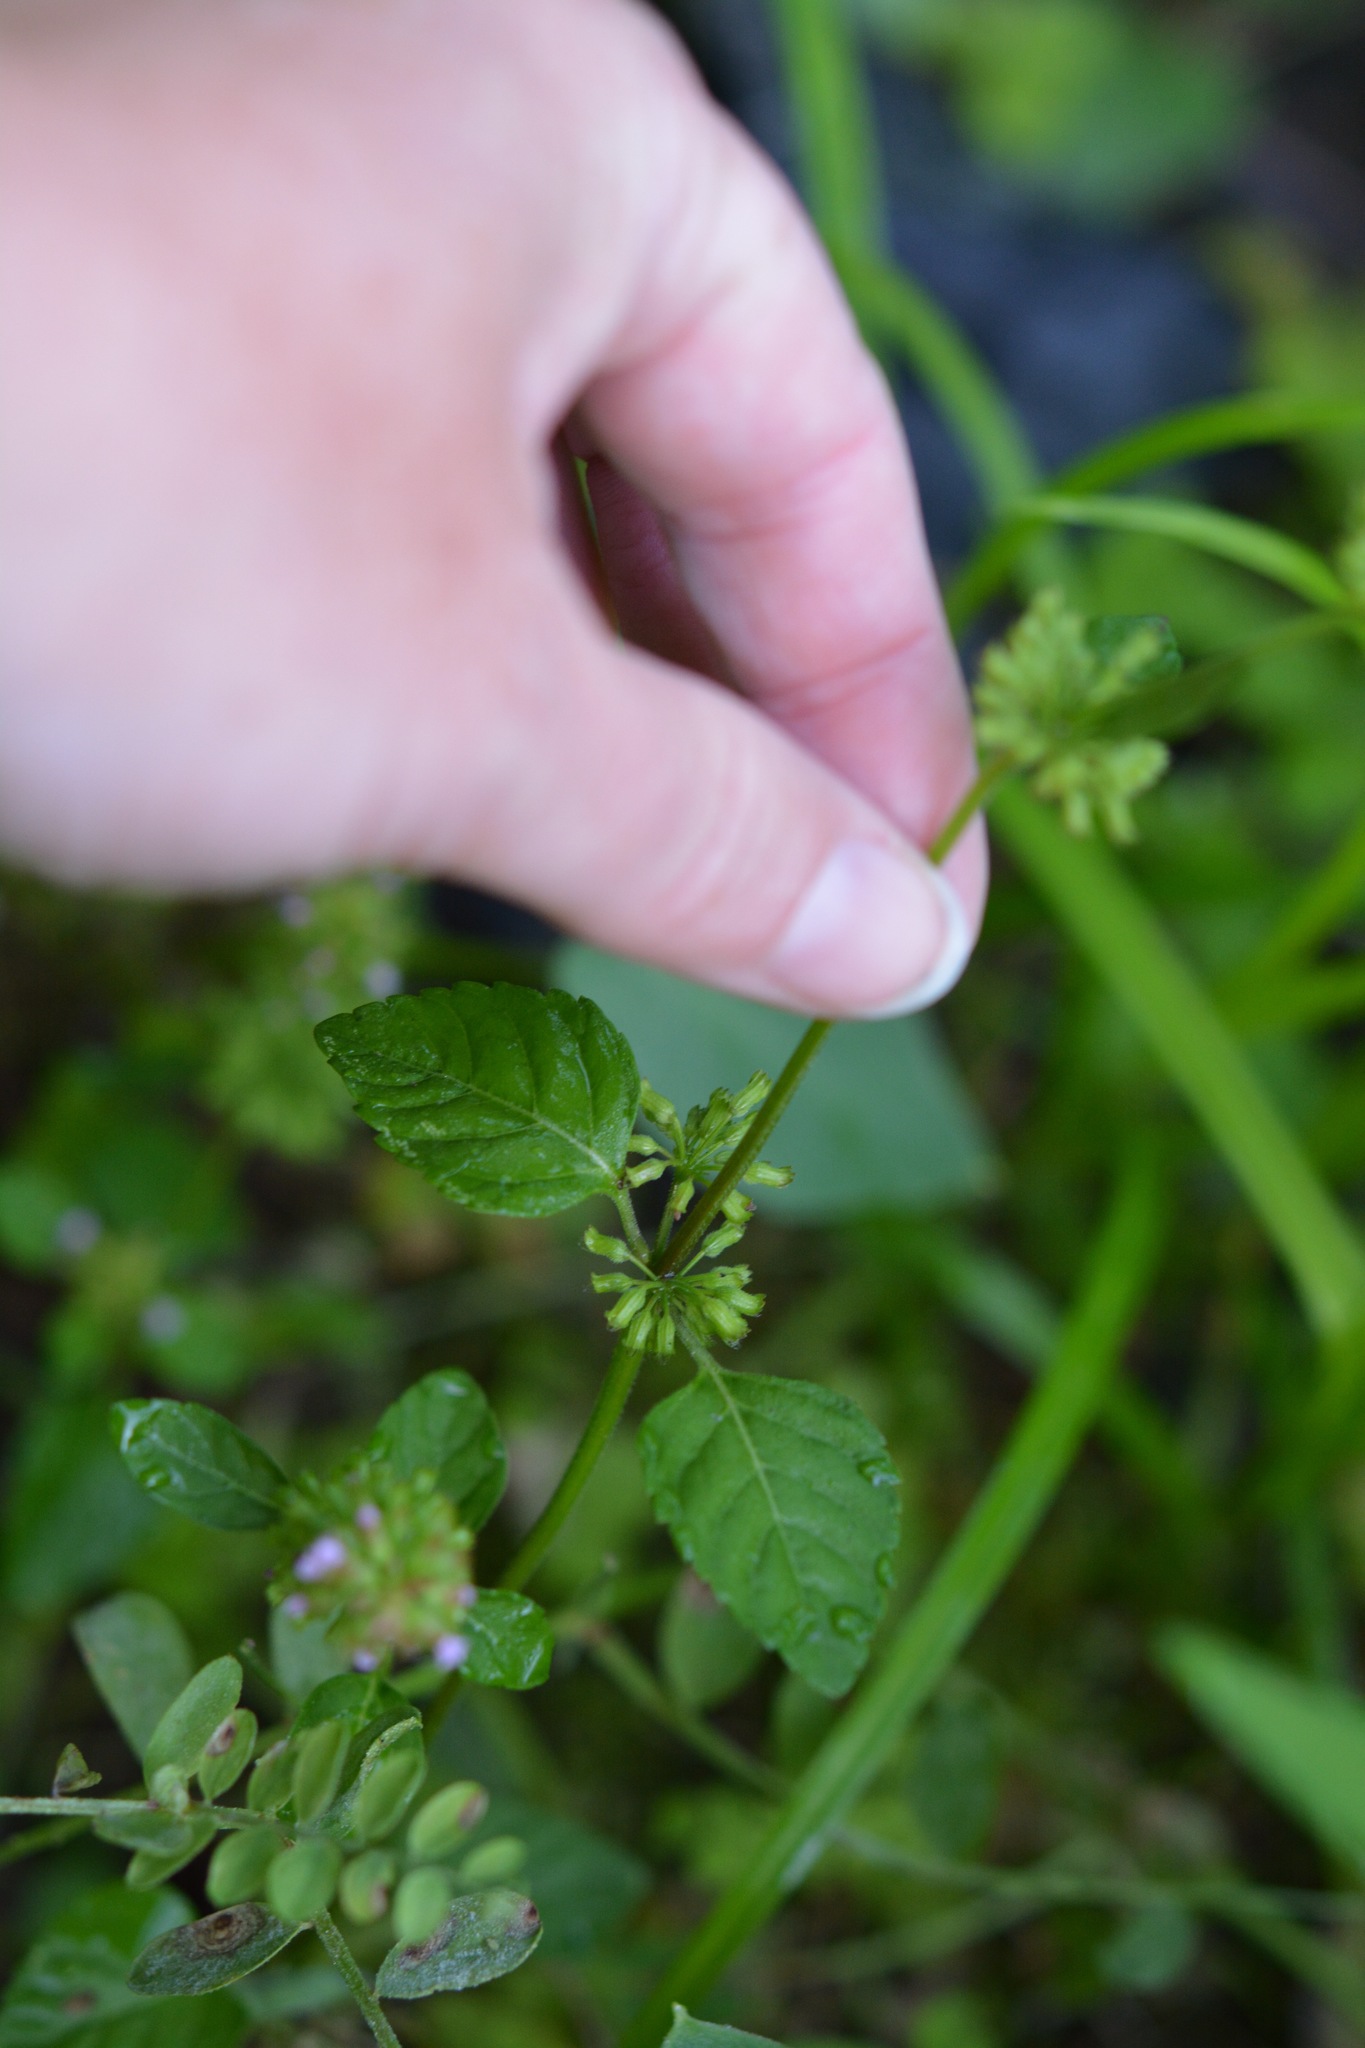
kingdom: Plantae
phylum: Tracheophyta
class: Magnoliopsida
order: Lamiales
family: Lamiaceae
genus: Clinopodium
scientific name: Clinopodium gracile
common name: Slender wild basil
